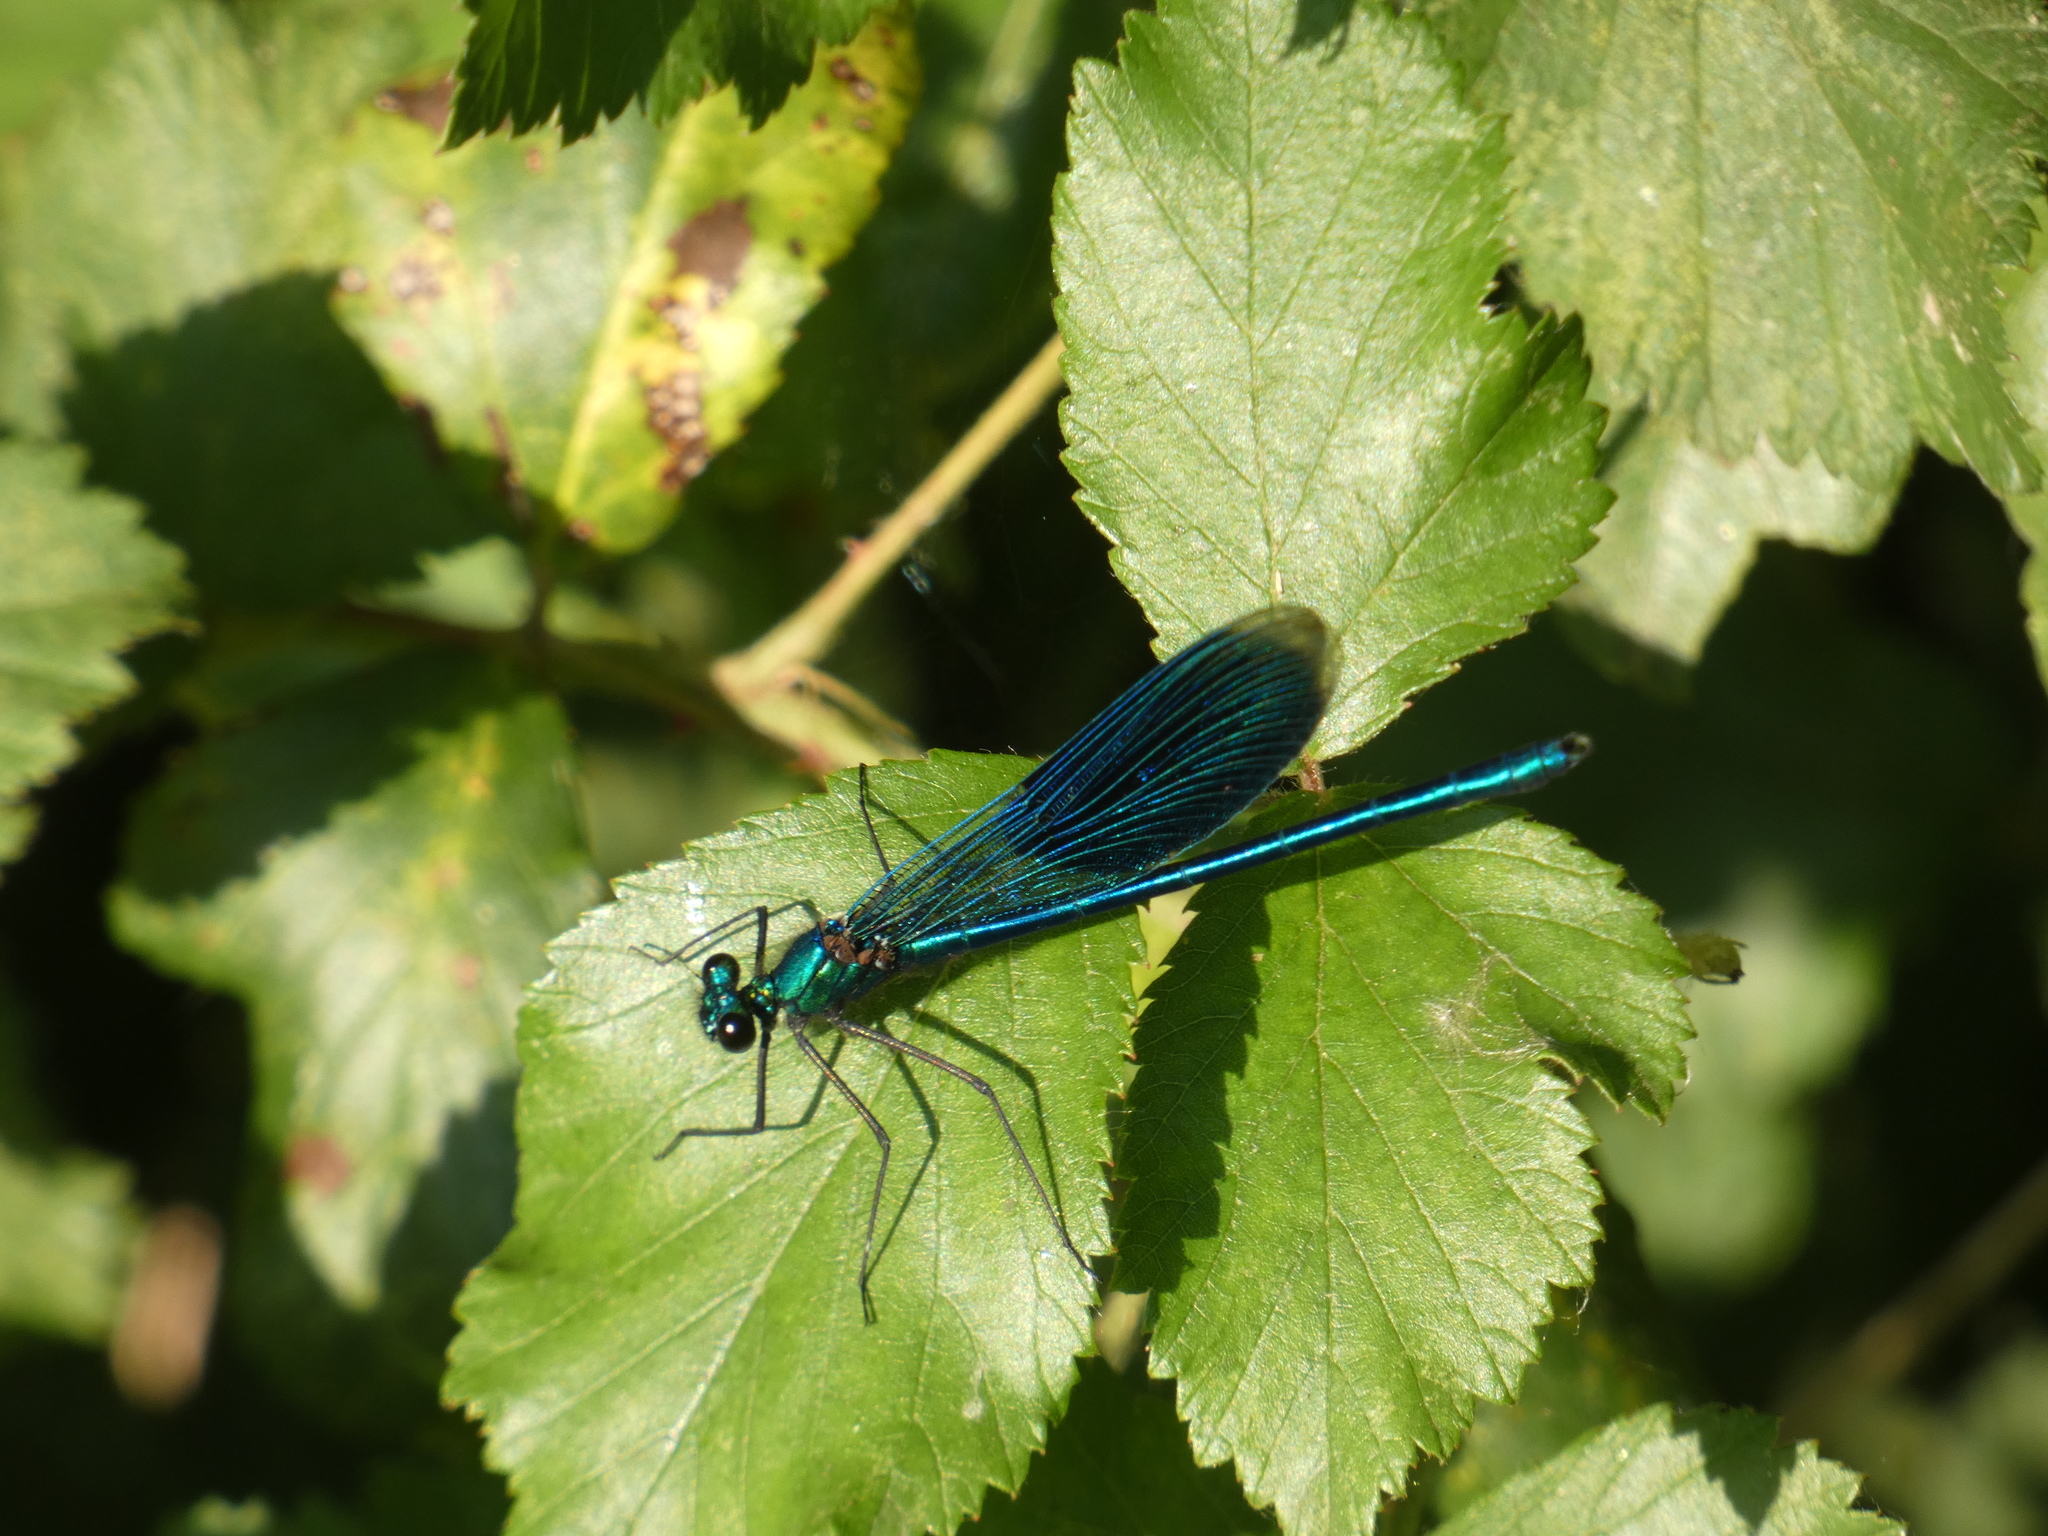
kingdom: Animalia
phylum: Arthropoda
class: Insecta
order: Odonata
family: Calopterygidae
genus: Calopteryx
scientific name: Calopteryx splendens
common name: Banded demoiselle
